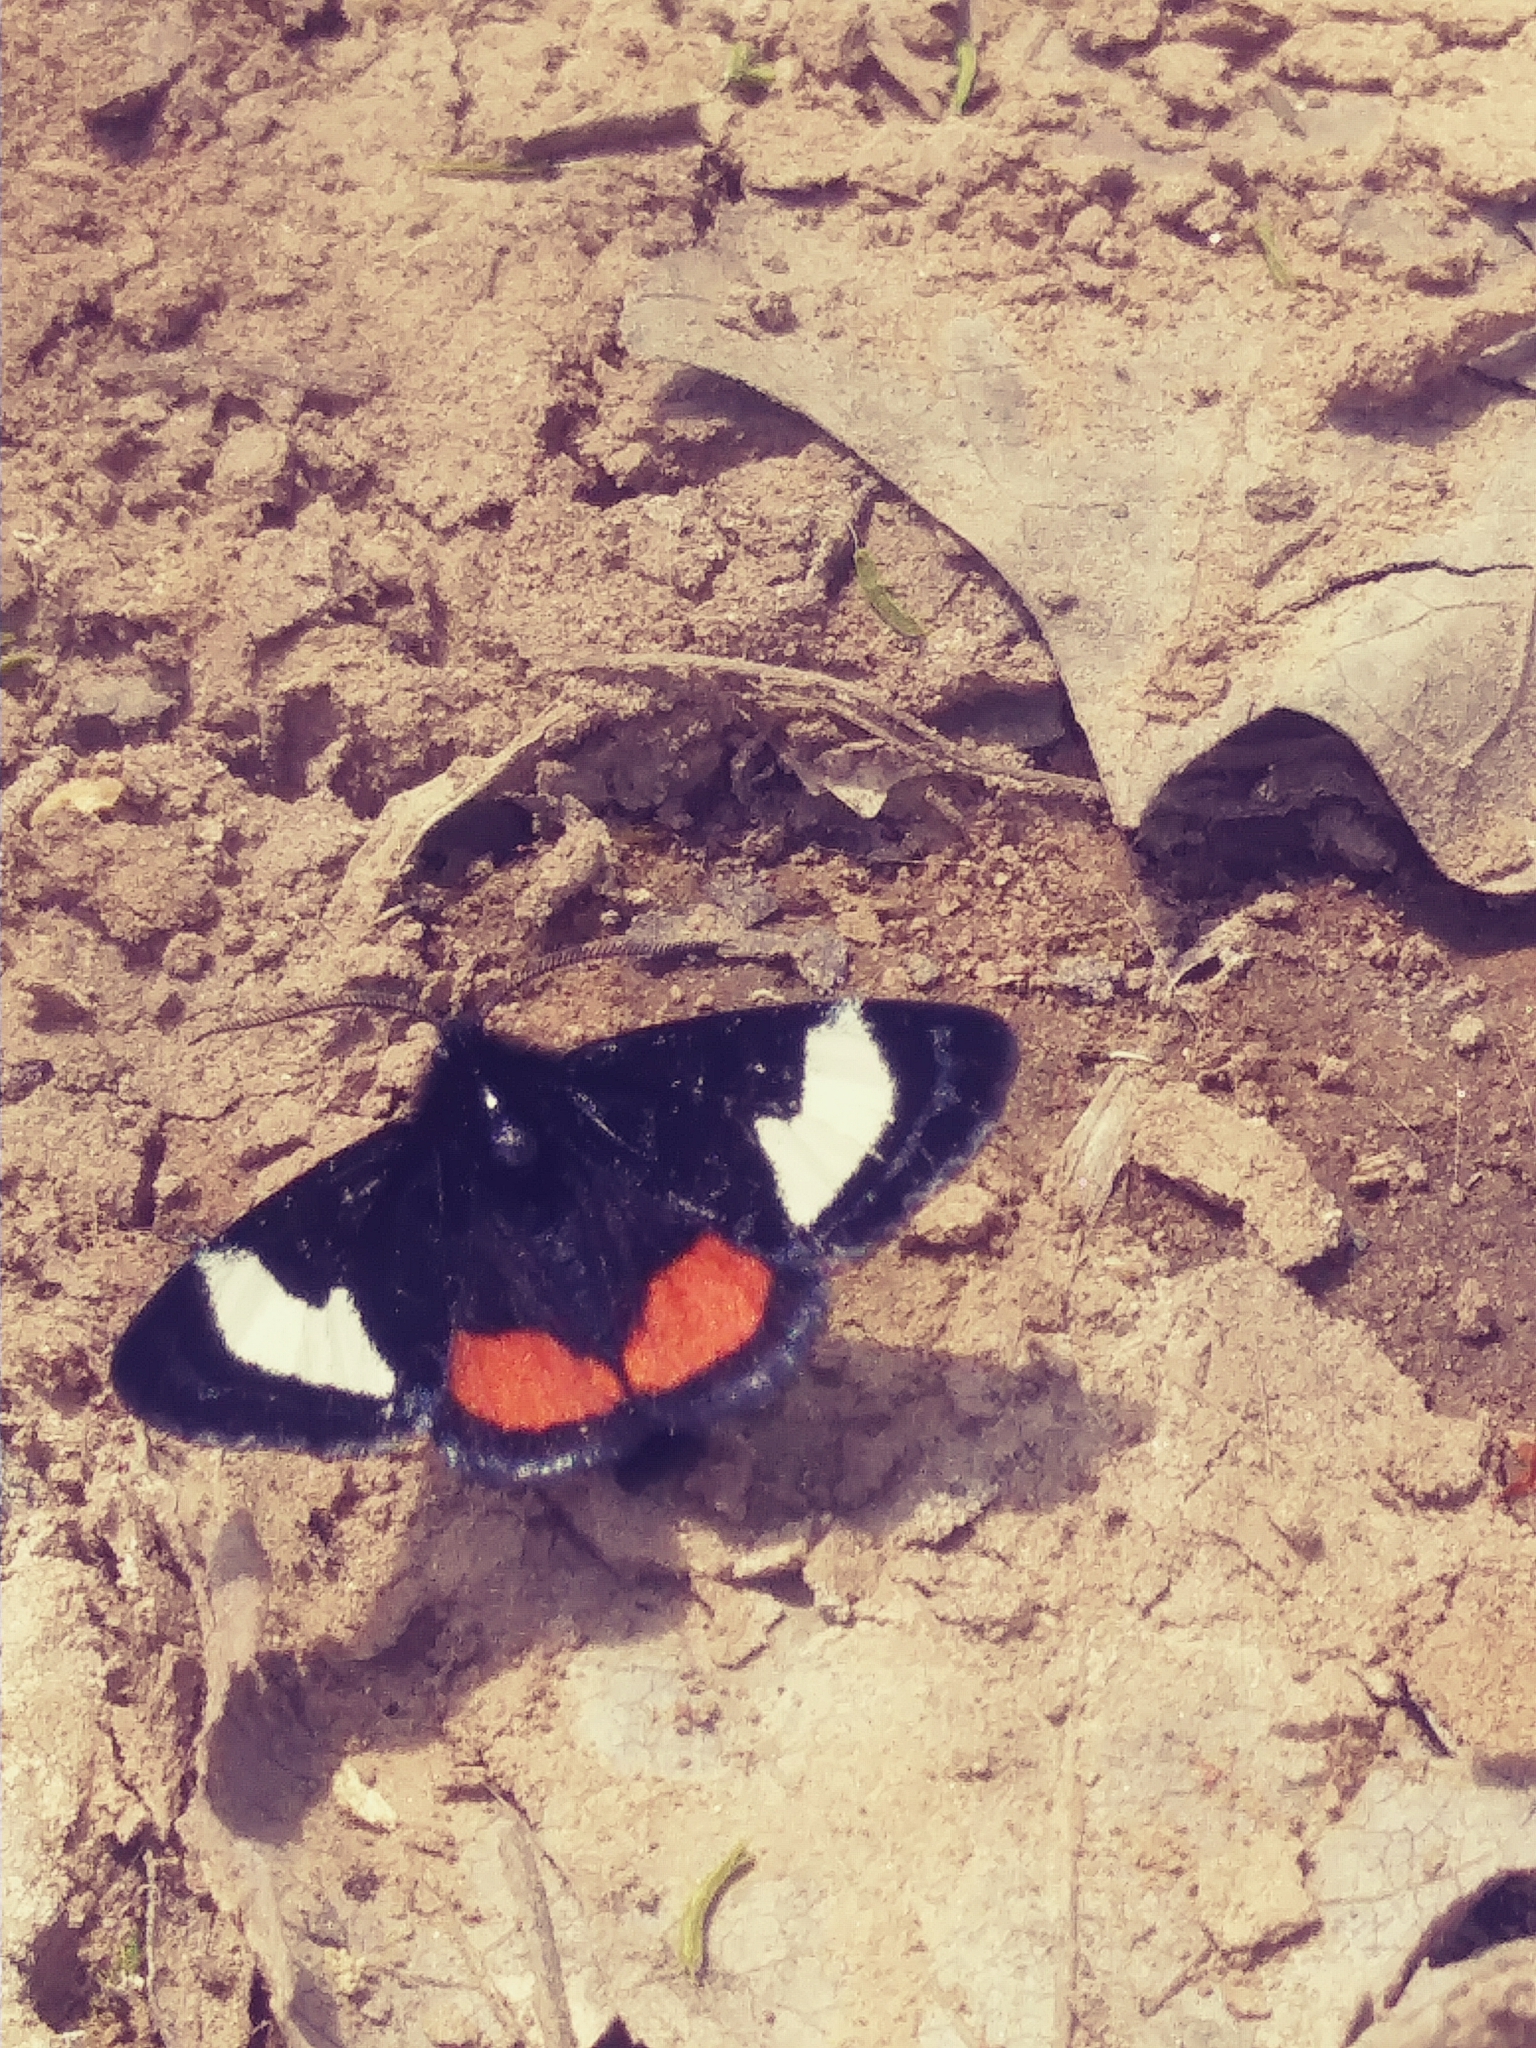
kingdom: Animalia
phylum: Arthropoda
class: Insecta
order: Lepidoptera
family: Noctuidae
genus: Psychomorpha
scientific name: Psychomorpha epimenis
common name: Grapevine epimenis moth
